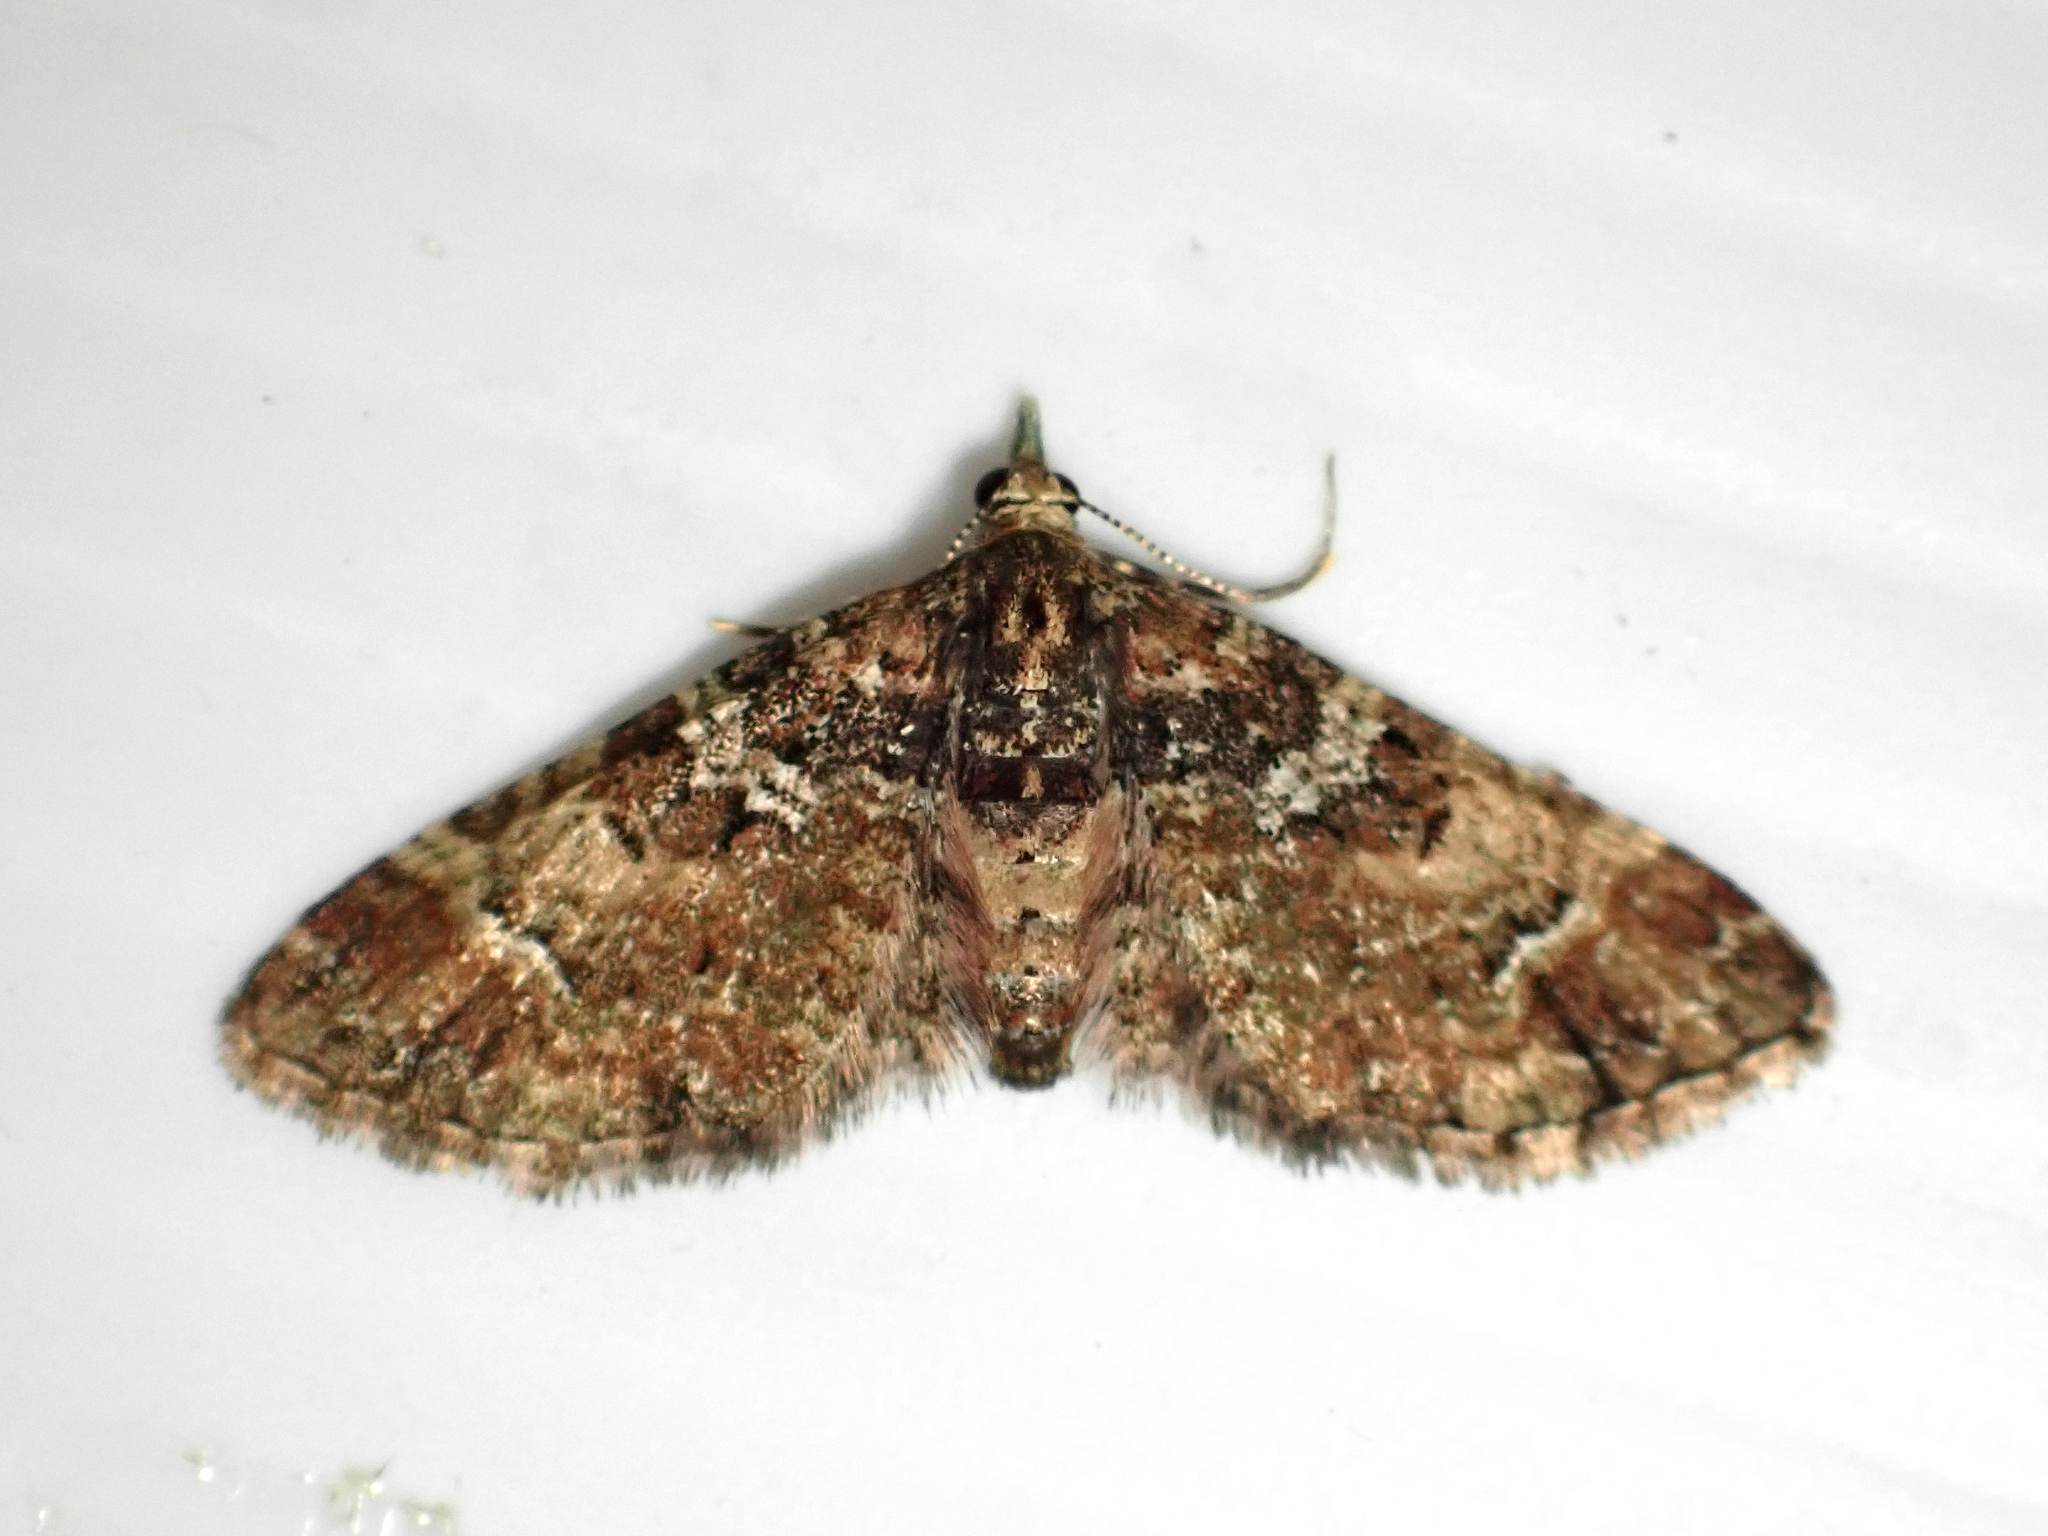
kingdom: Animalia
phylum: Arthropoda
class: Insecta
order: Lepidoptera
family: Geometridae
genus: Pasiphila
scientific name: Pasiphila sandycias
